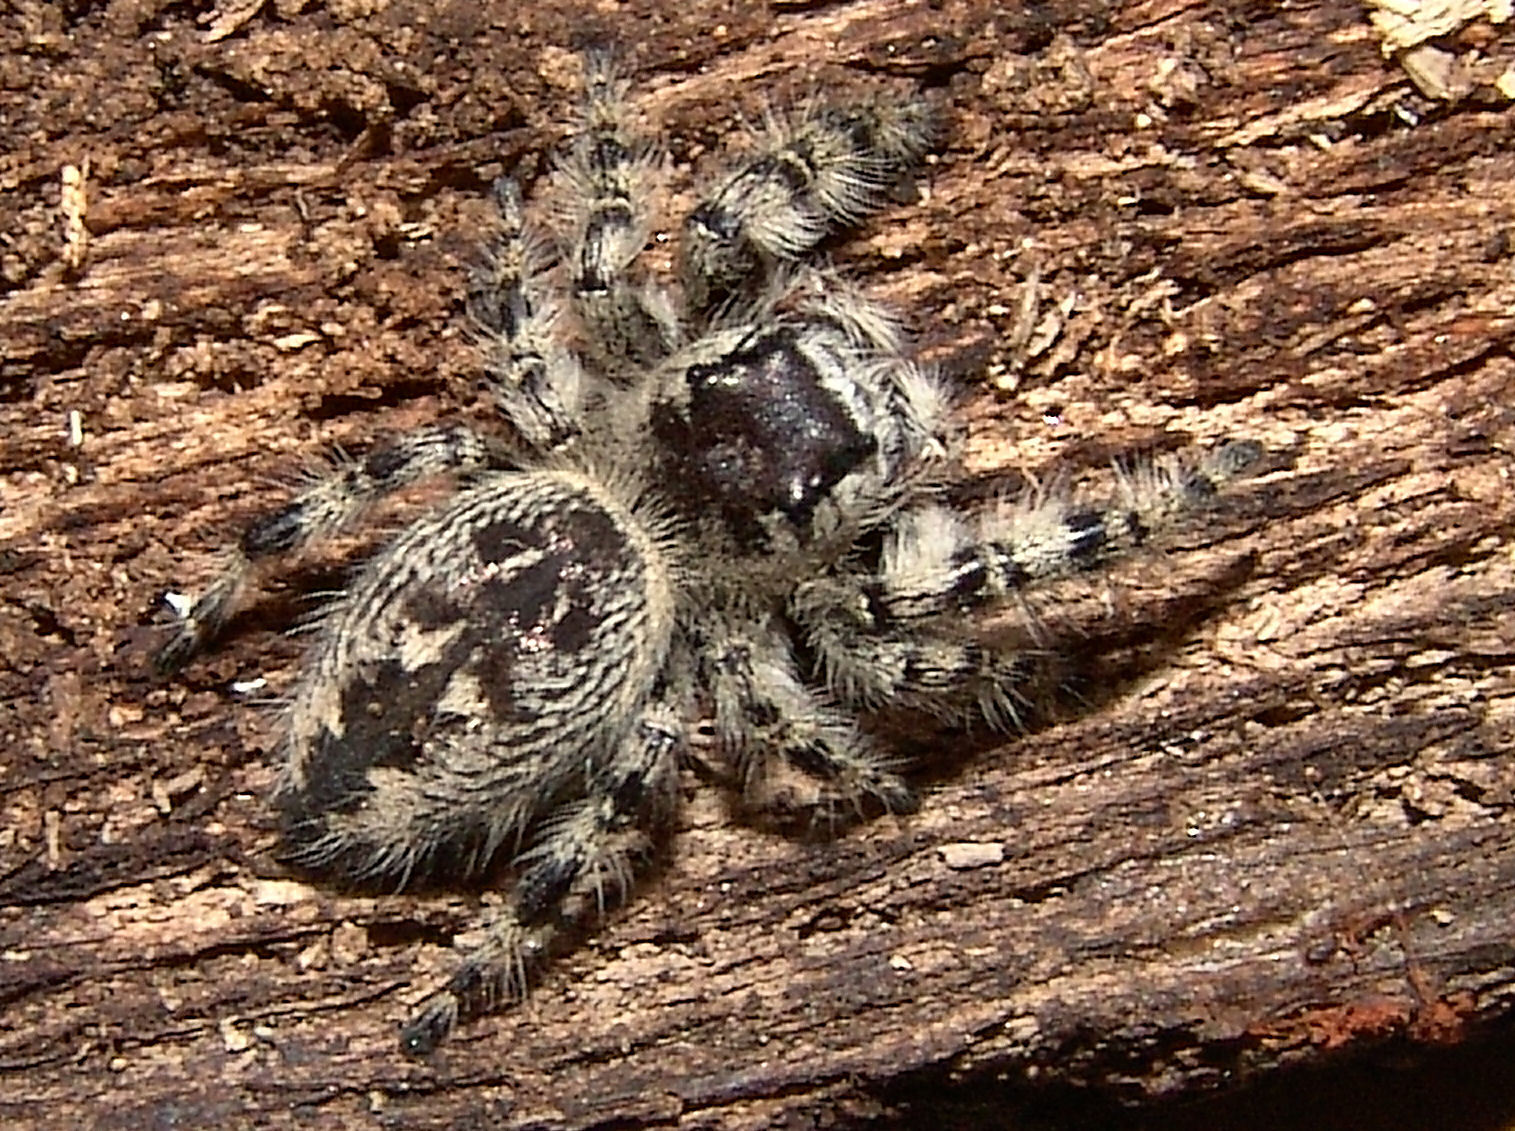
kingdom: Animalia
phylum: Arthropoda
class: Arachnida
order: Araneae
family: Salticidae
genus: Phidippus
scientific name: Phidippus otiosus
